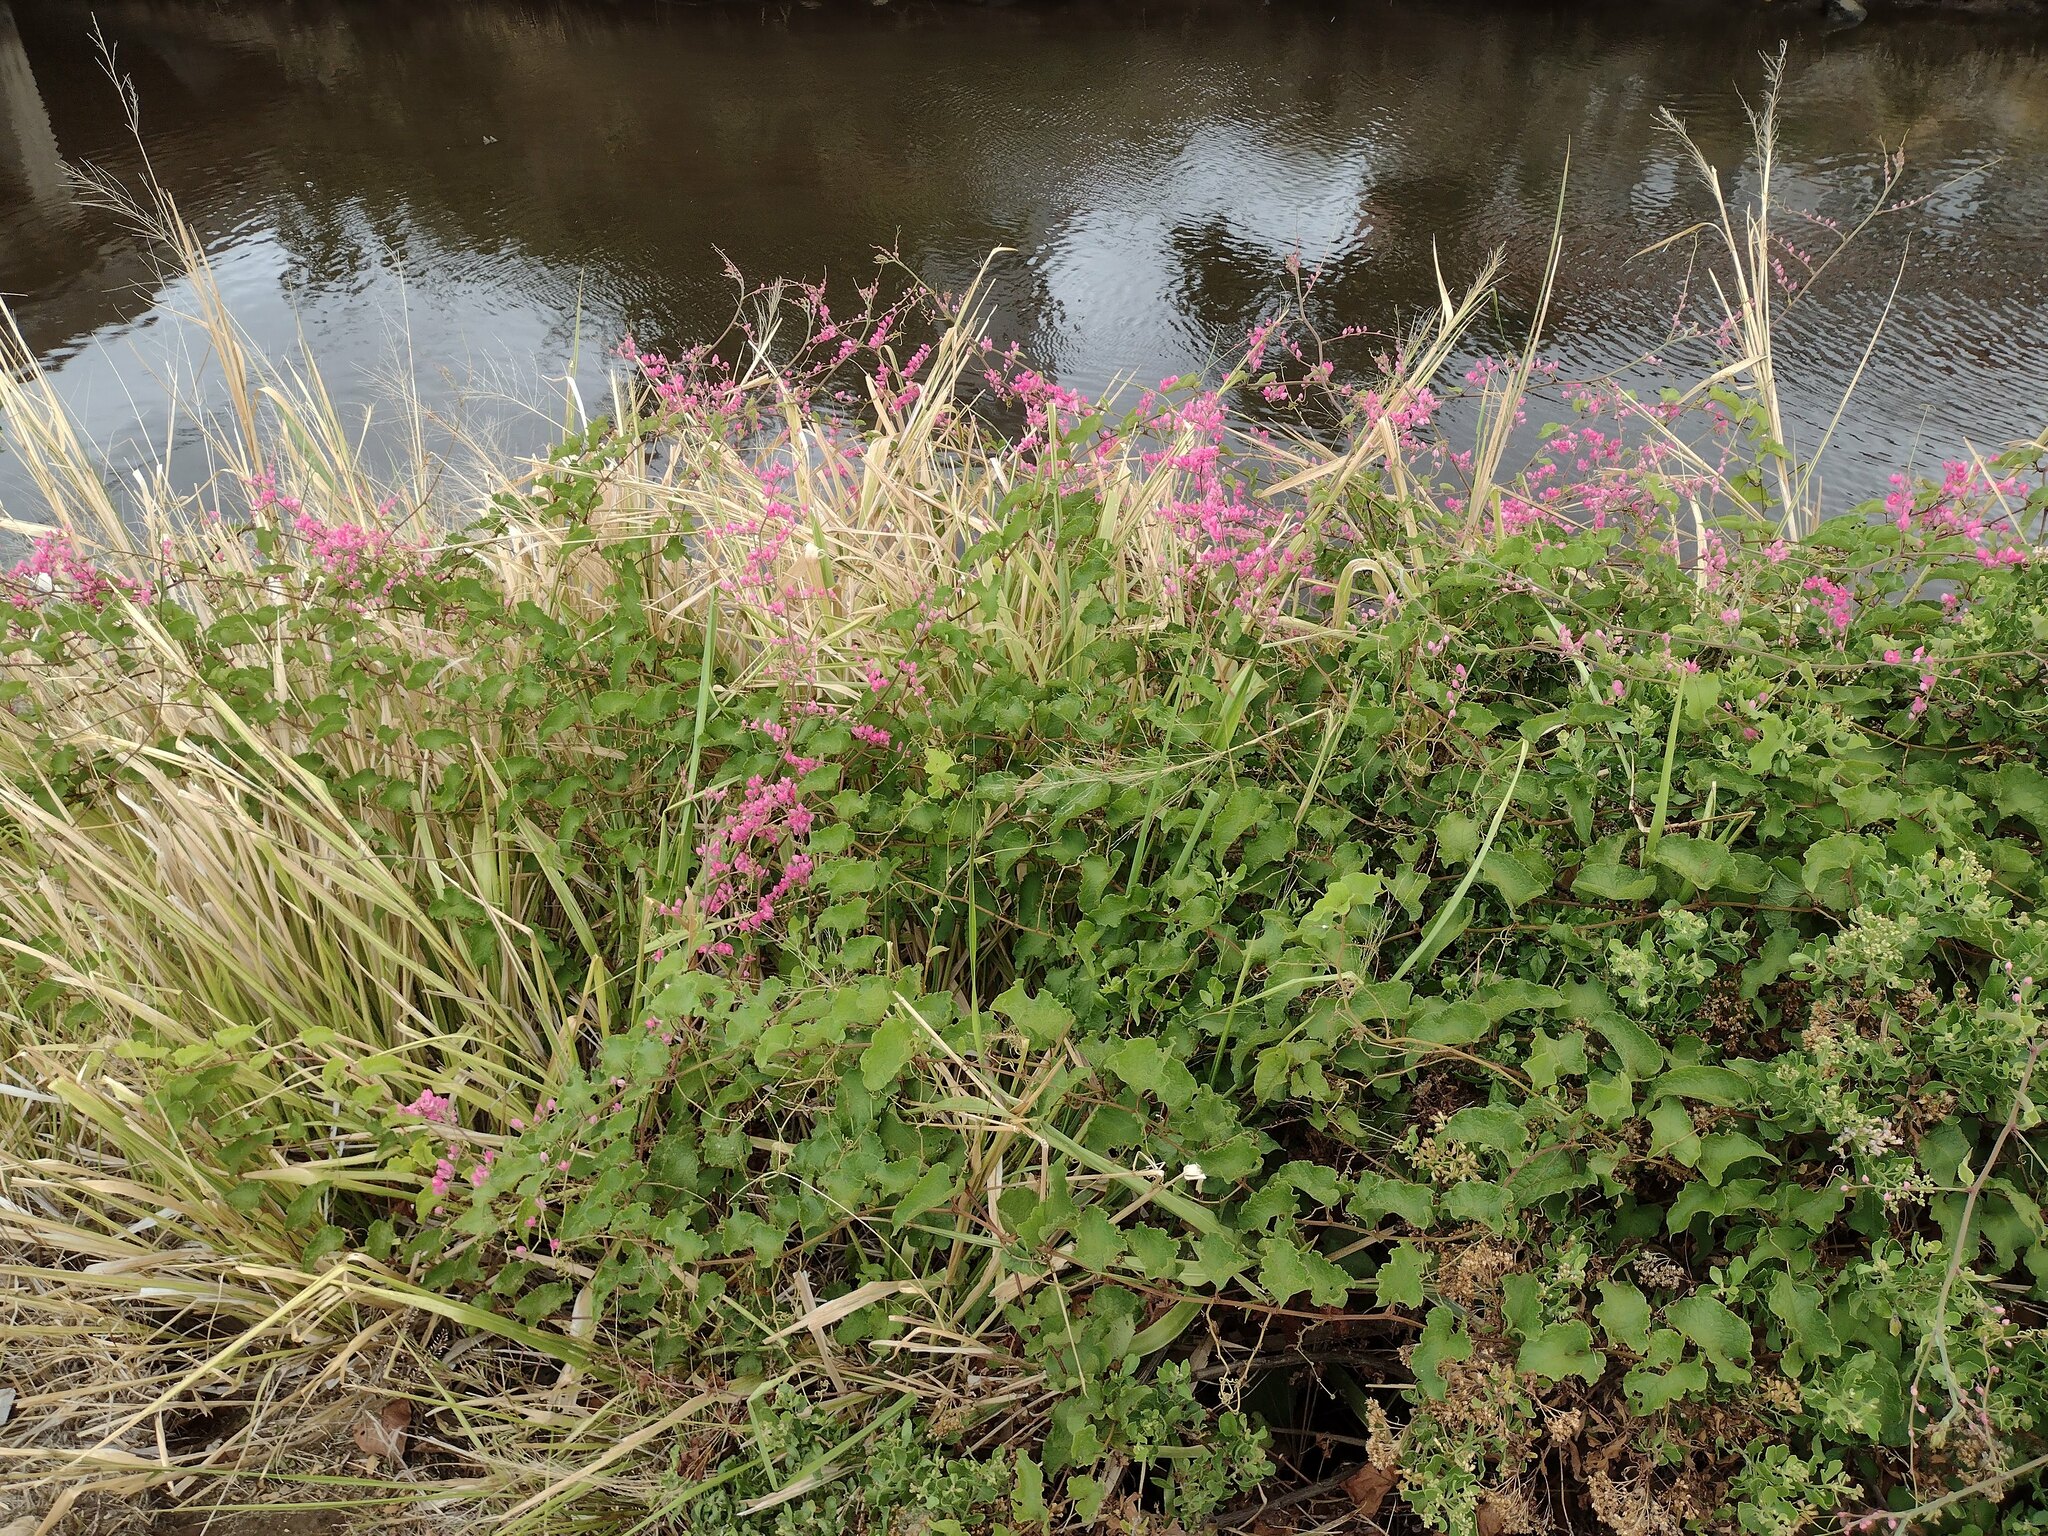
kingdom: Plantae
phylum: Tracheophyta
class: Magnoliopsida
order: Caryophyllales
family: Polygonaceae
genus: Antigonon
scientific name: Antigonon leptopus
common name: Coral vine
